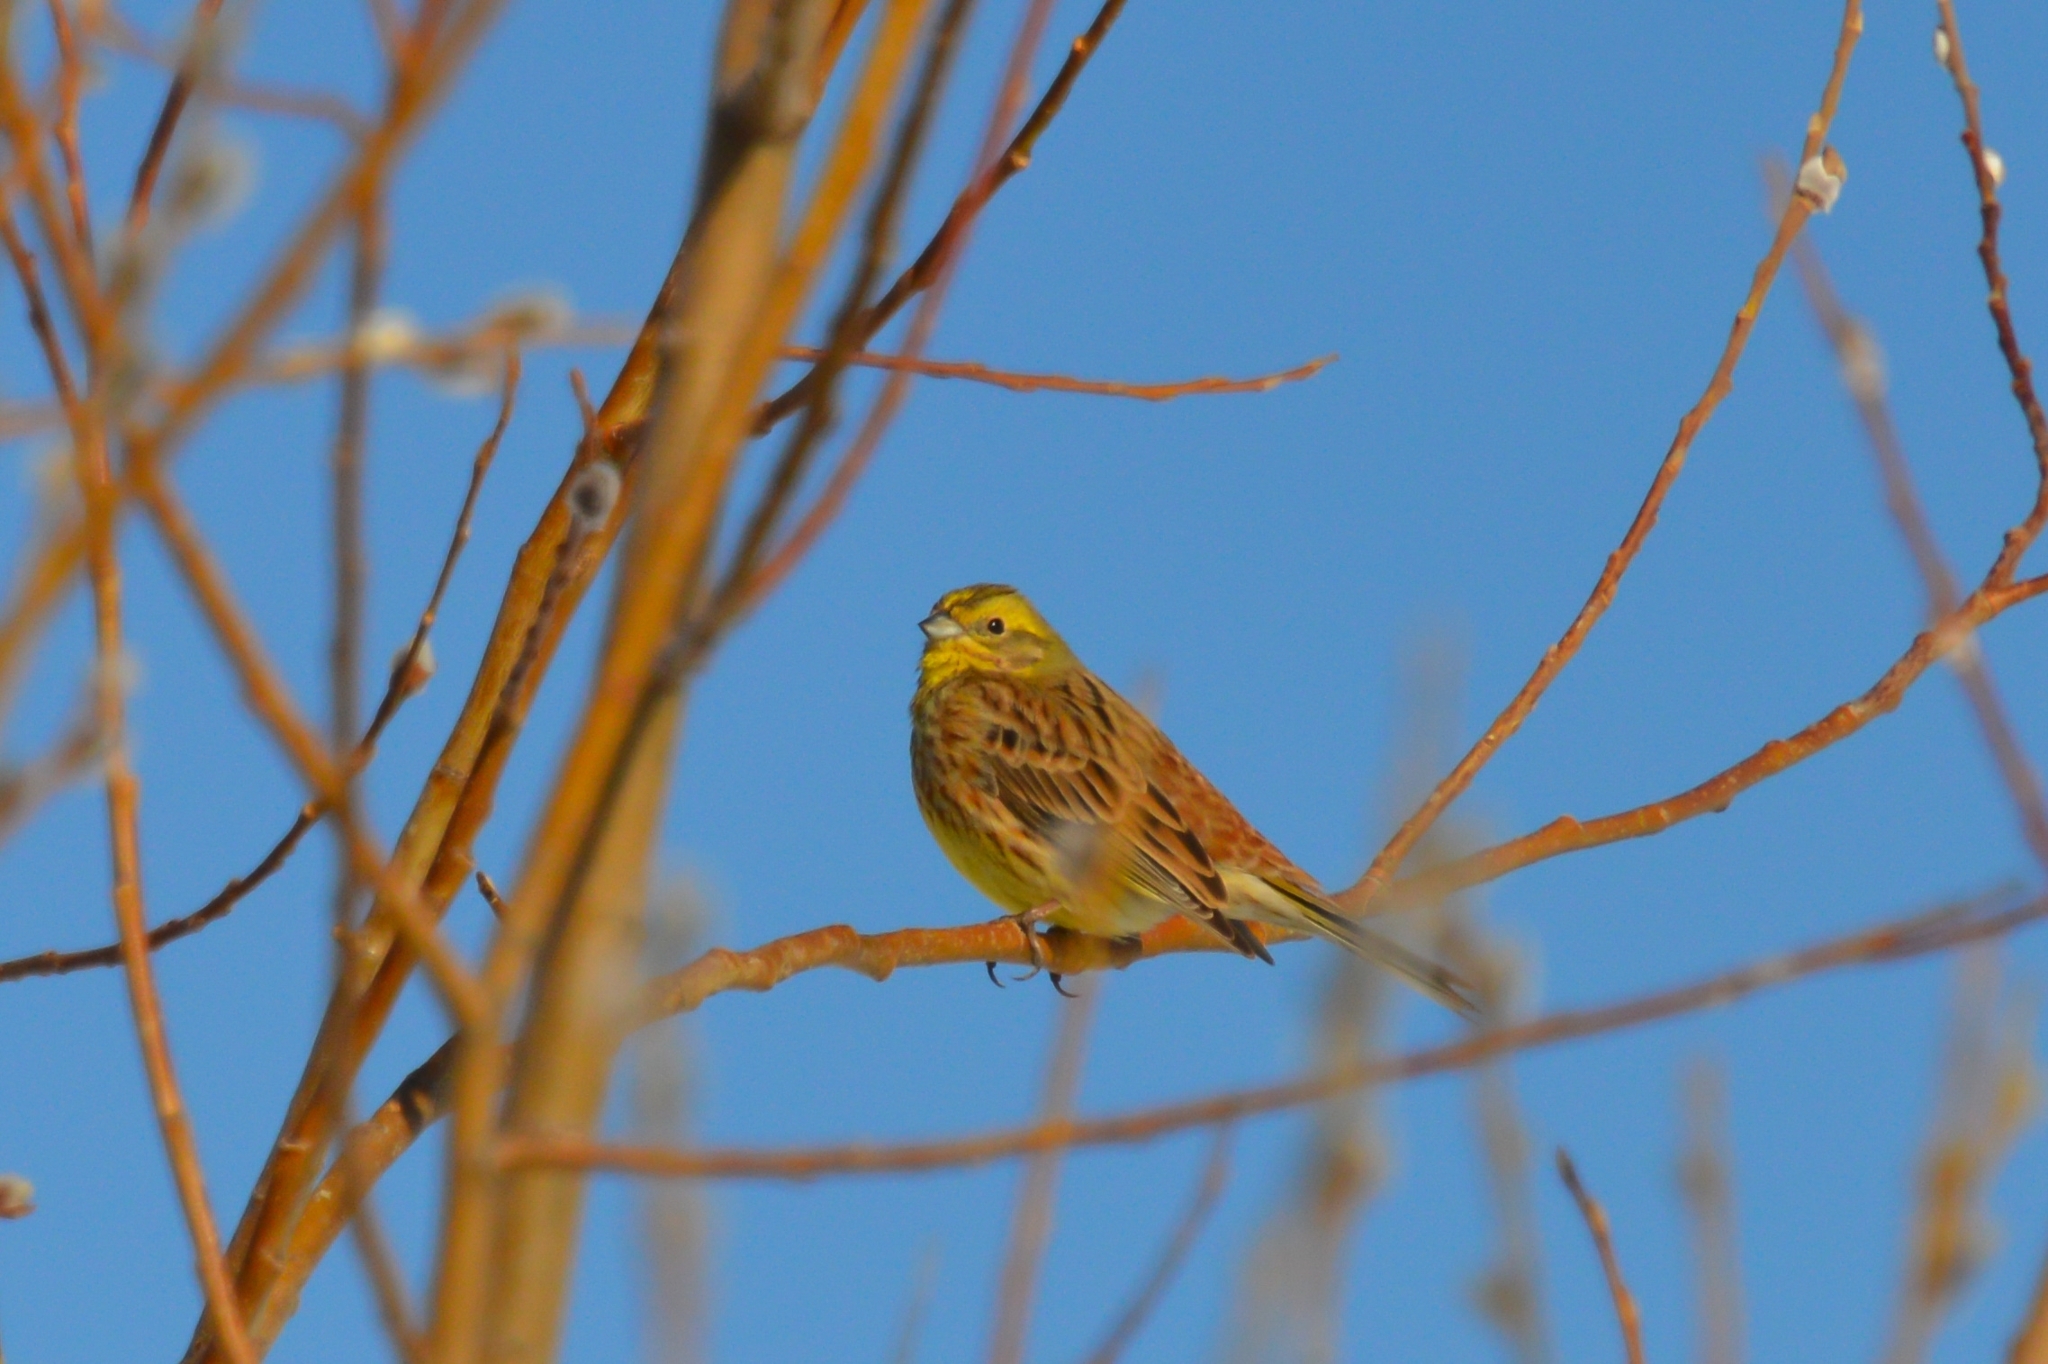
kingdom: Animalia
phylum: Chordata
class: Aves
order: Passeriformes
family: Emberizidae
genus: Emberiza
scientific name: Emberiza citrinella
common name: Yellowhammer
